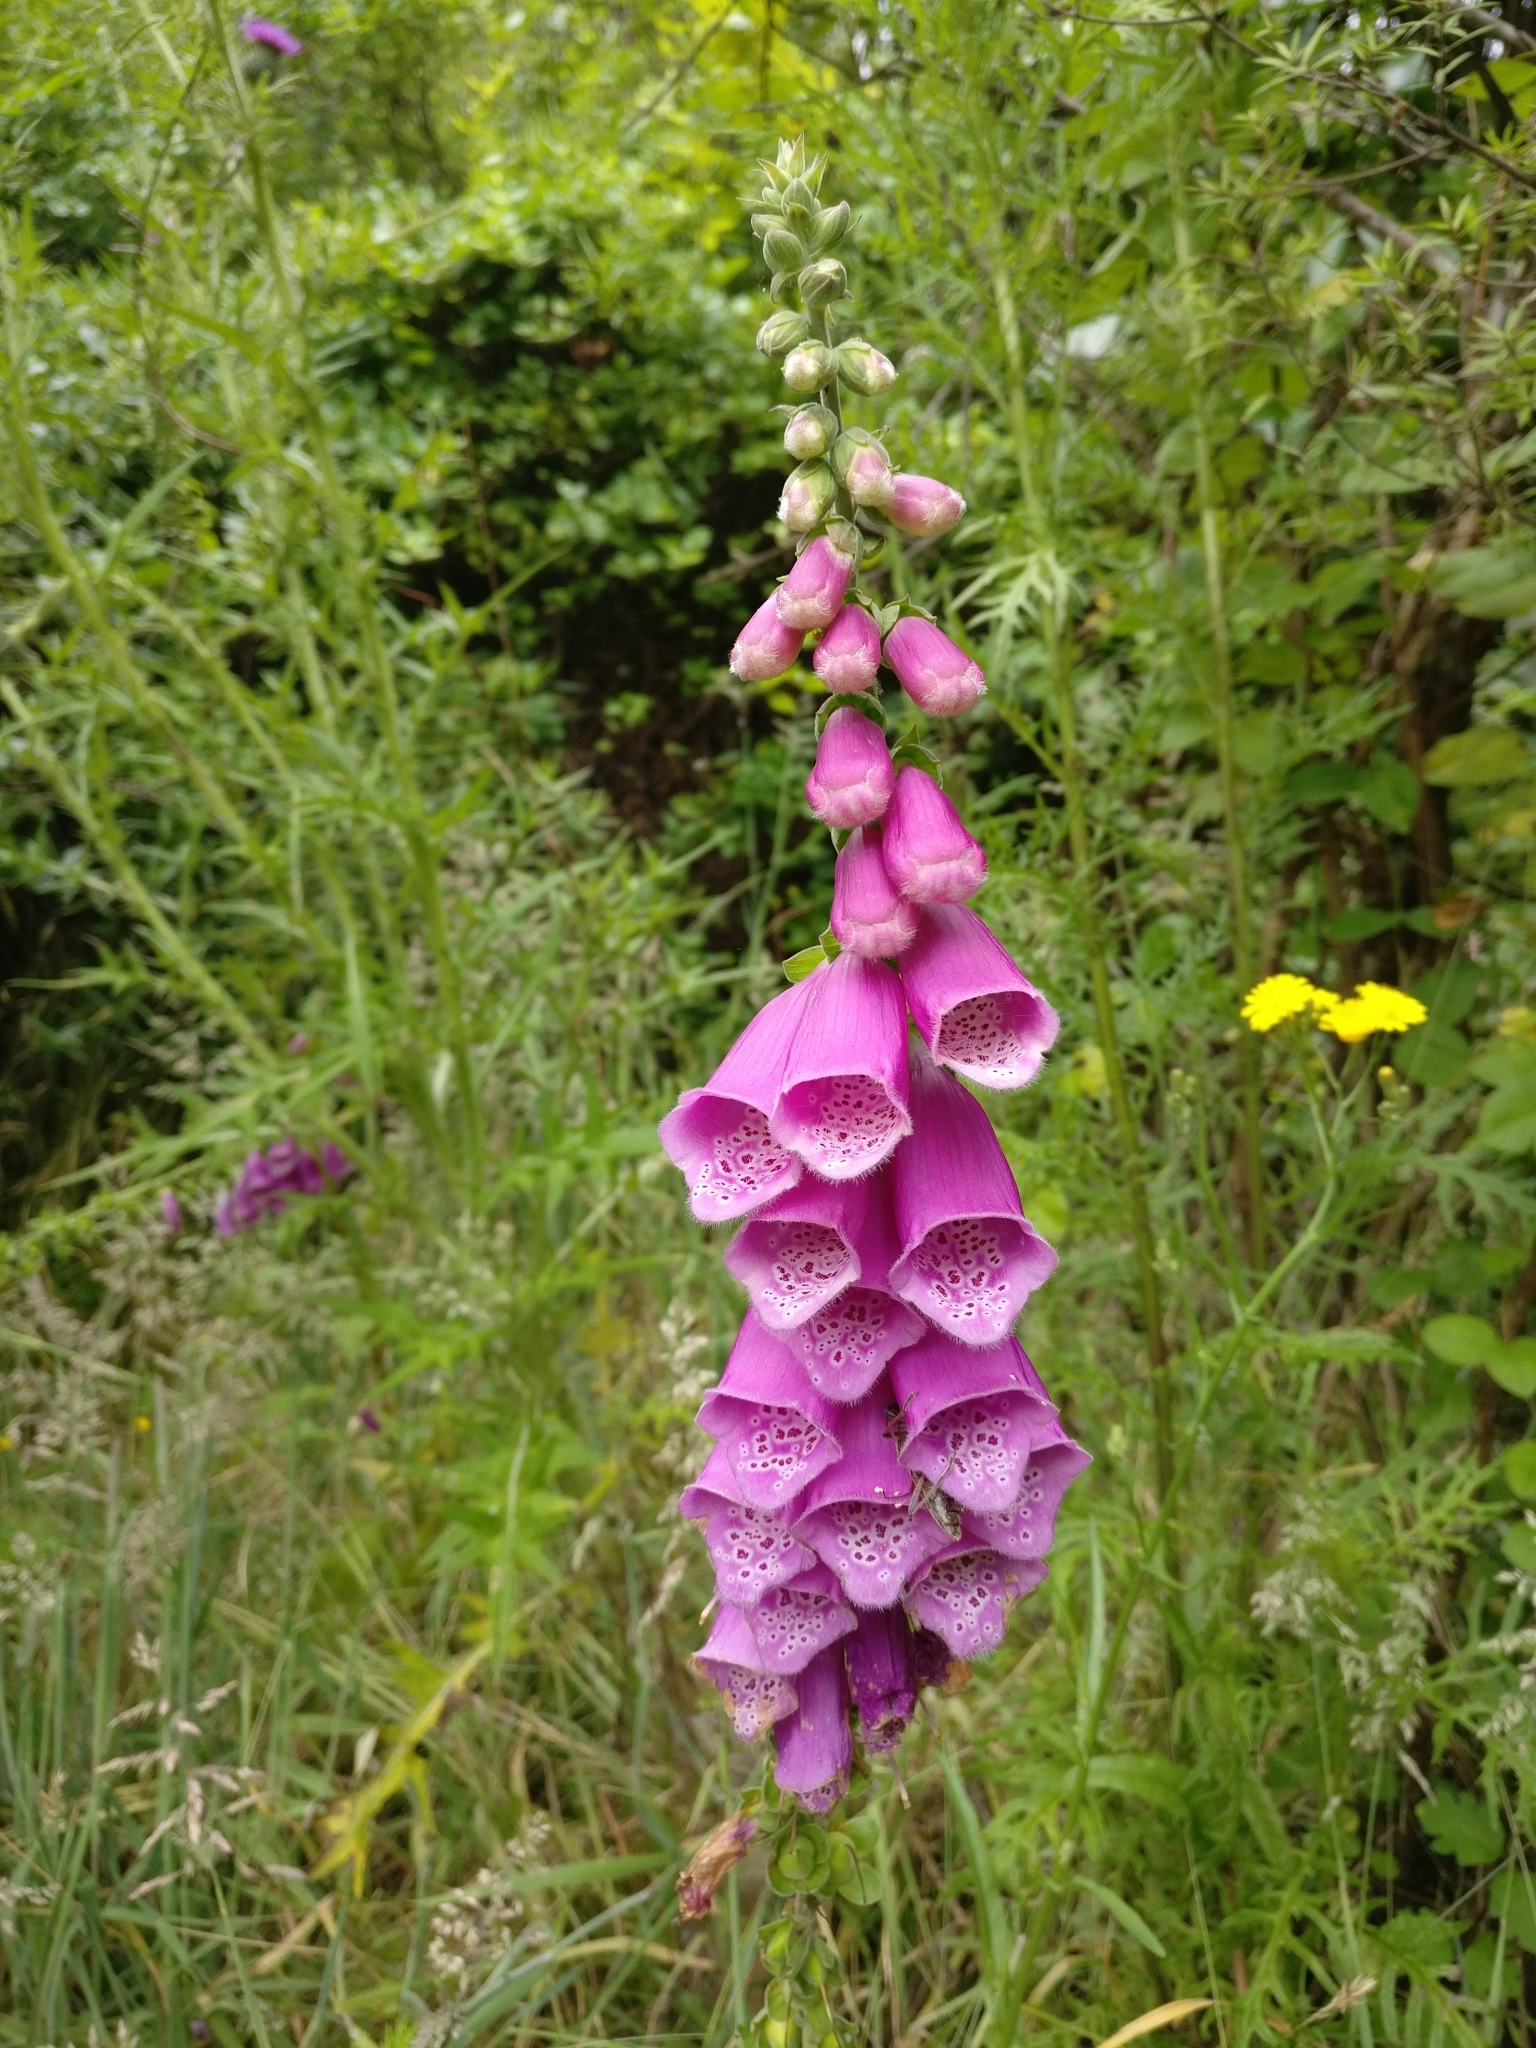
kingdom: Plantae
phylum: Tracheophyta
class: Magnoliopsida
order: Lamiales
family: Plantaginaceae
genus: Digitalis
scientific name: Digitalis purpurea
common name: Foxglove
